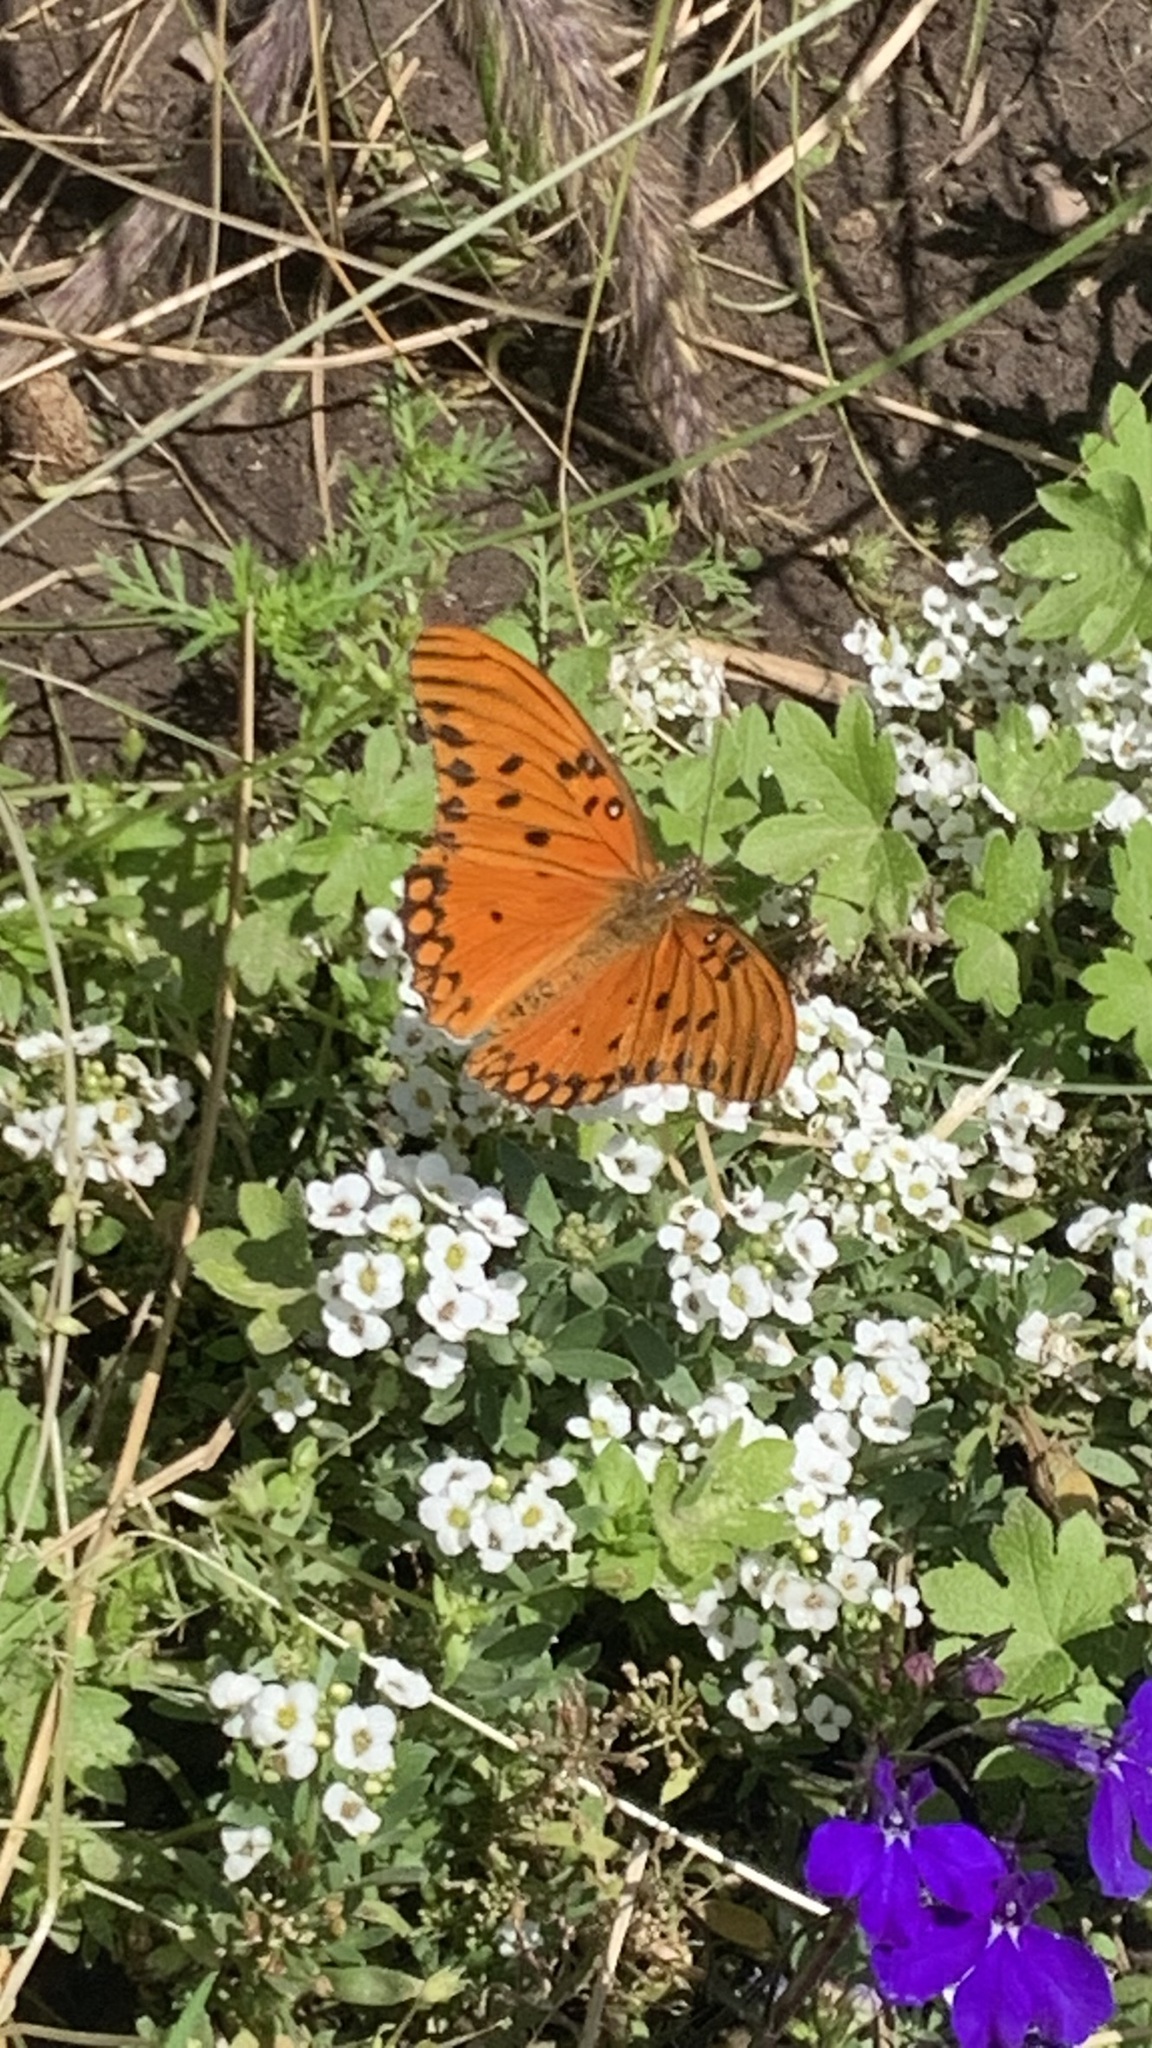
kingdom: Animalia
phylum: Arthropoda
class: Insecta
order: Lepidoptera
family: Nymphalidae
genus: Dione
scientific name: Dione vanillae
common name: Gulf fritillary
